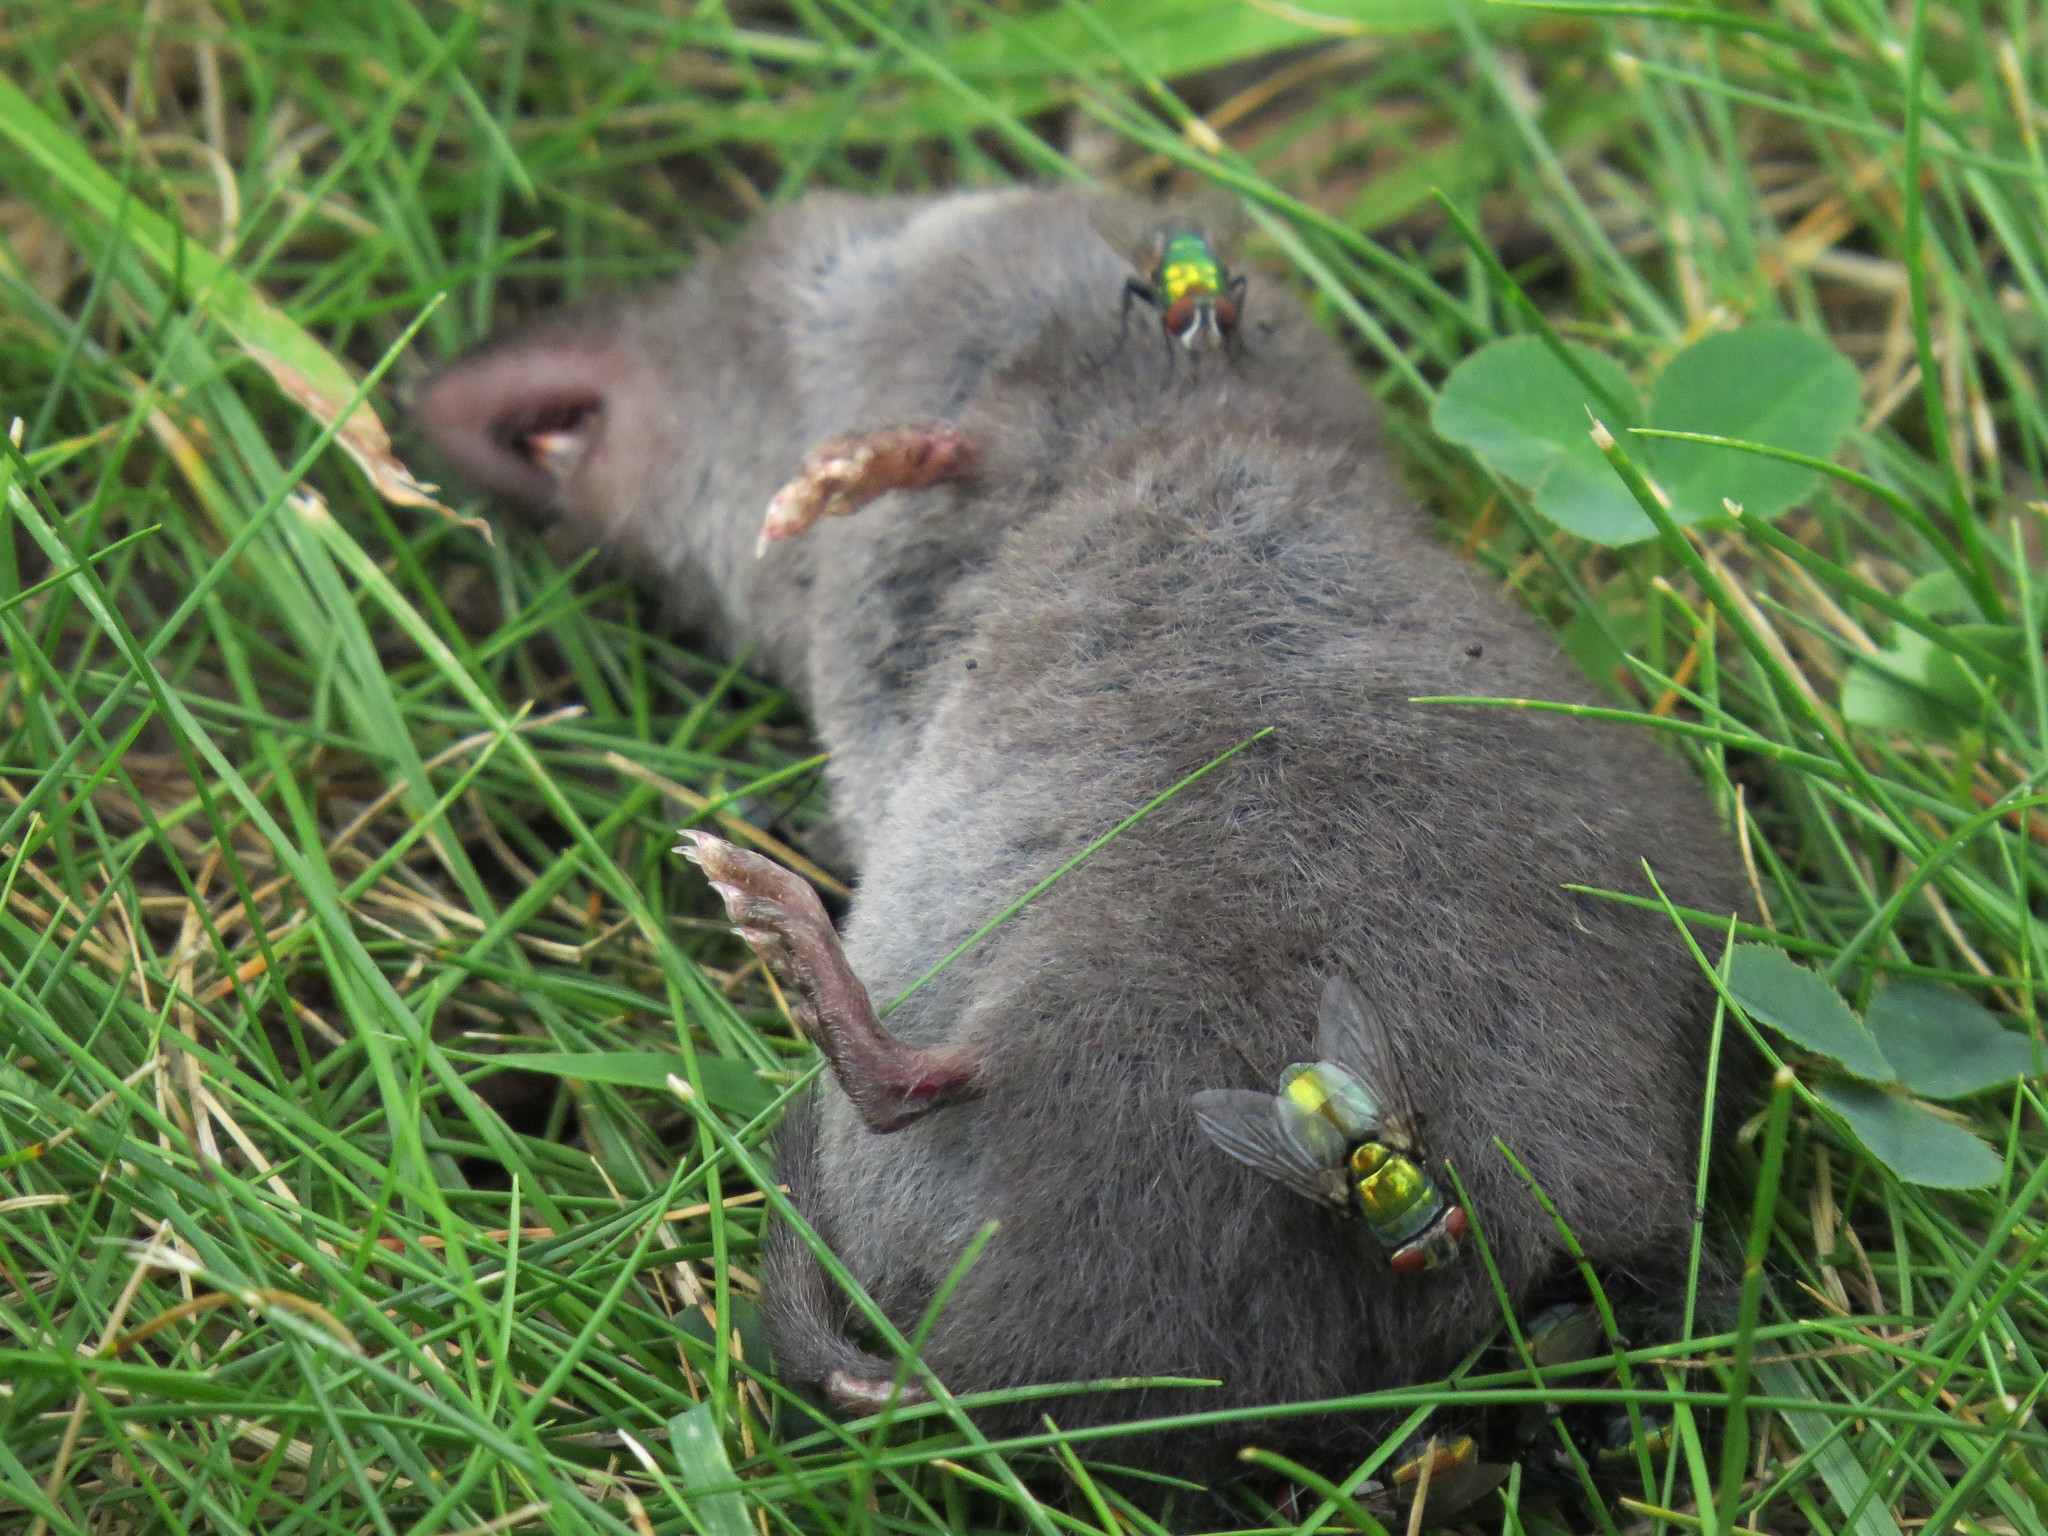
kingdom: Animalia
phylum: Chordata
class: Mammalia
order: Soricomorpha
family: Soricidae
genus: Blarina
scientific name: Blarina brevicauda
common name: Northern short-tailed shrew
